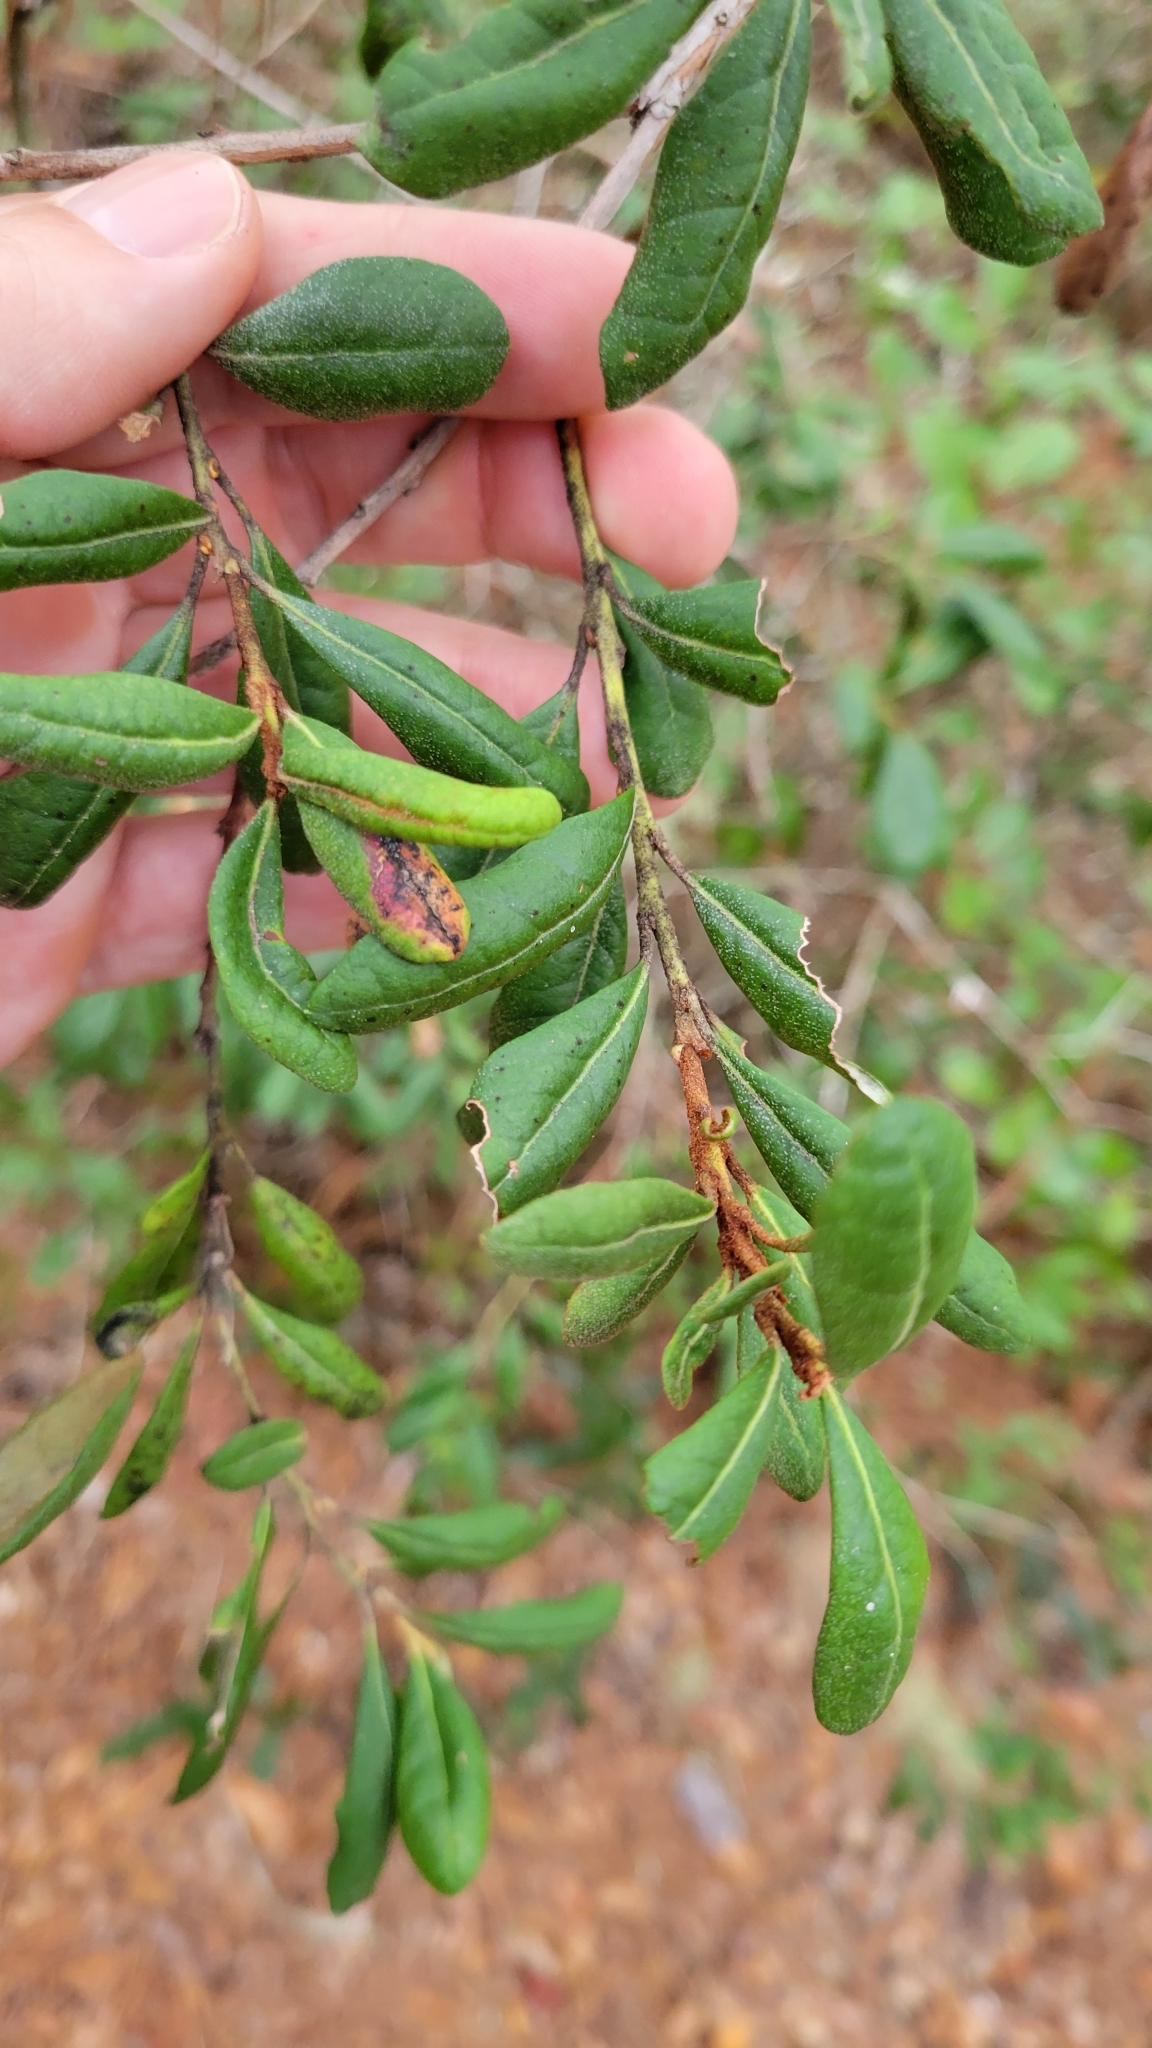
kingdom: Plantae
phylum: Tracheophyta
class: Magnoliopsida
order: Ericales
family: Ericaceae
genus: Lyonia
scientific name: Lyonia ferruginea
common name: Rusty lyonia
